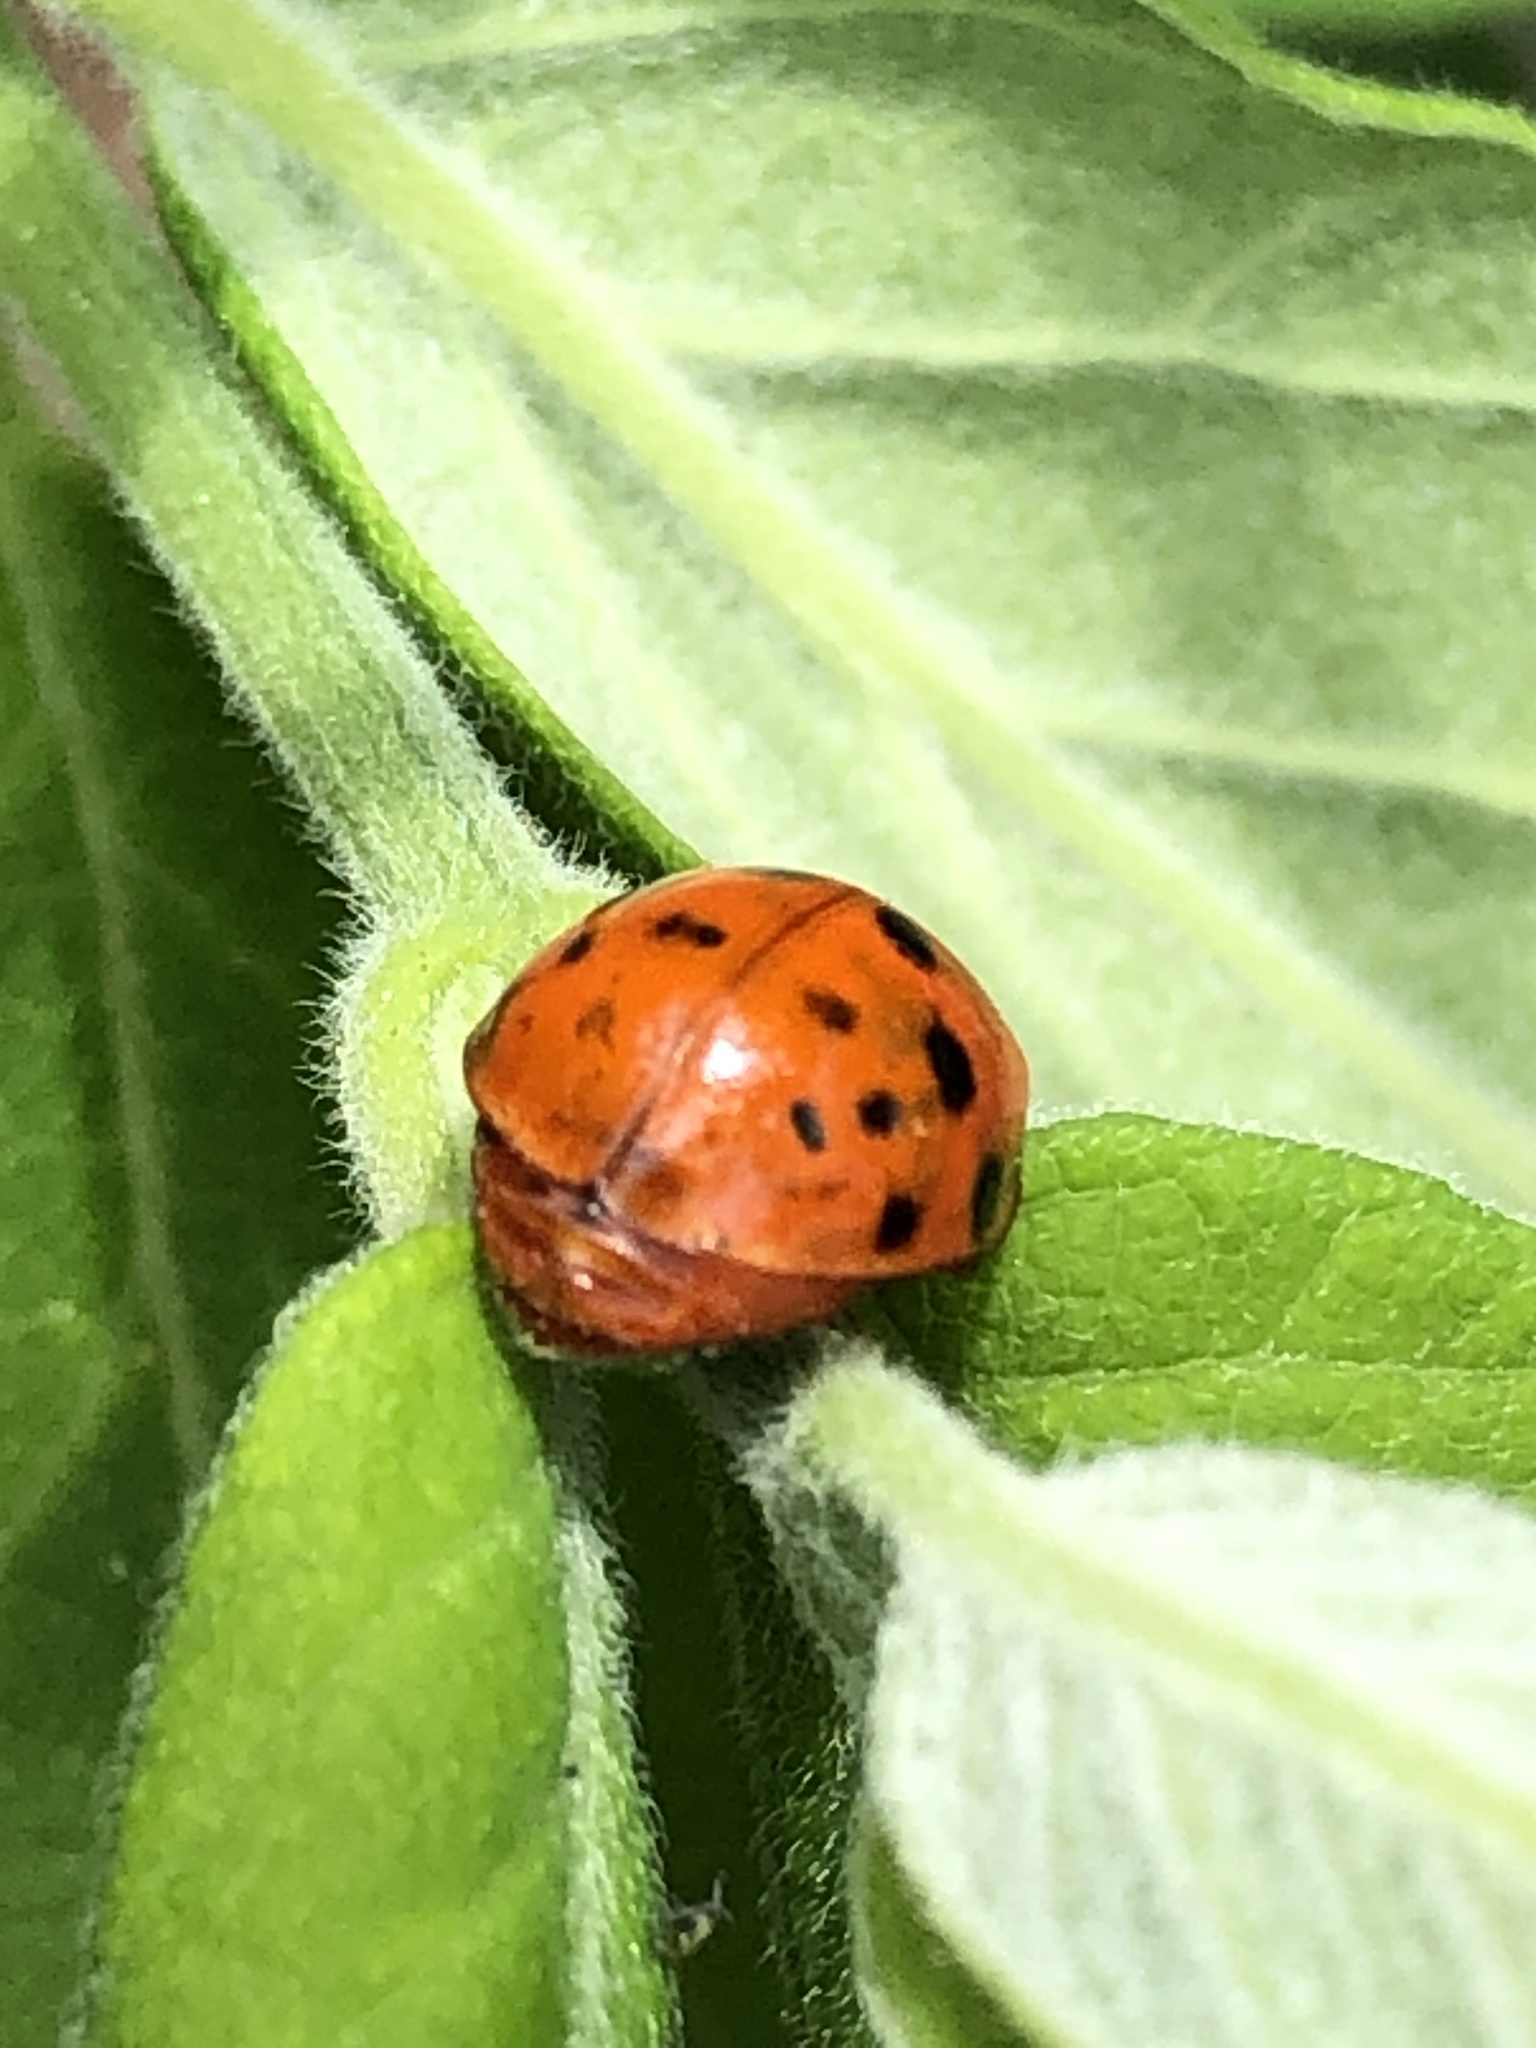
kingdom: Animalia
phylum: Arthropoda
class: Insecta
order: Coleoptera
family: Coccinellidae
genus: Harmonia
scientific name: Harmonia axyridis
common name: Harlequin ladybird
